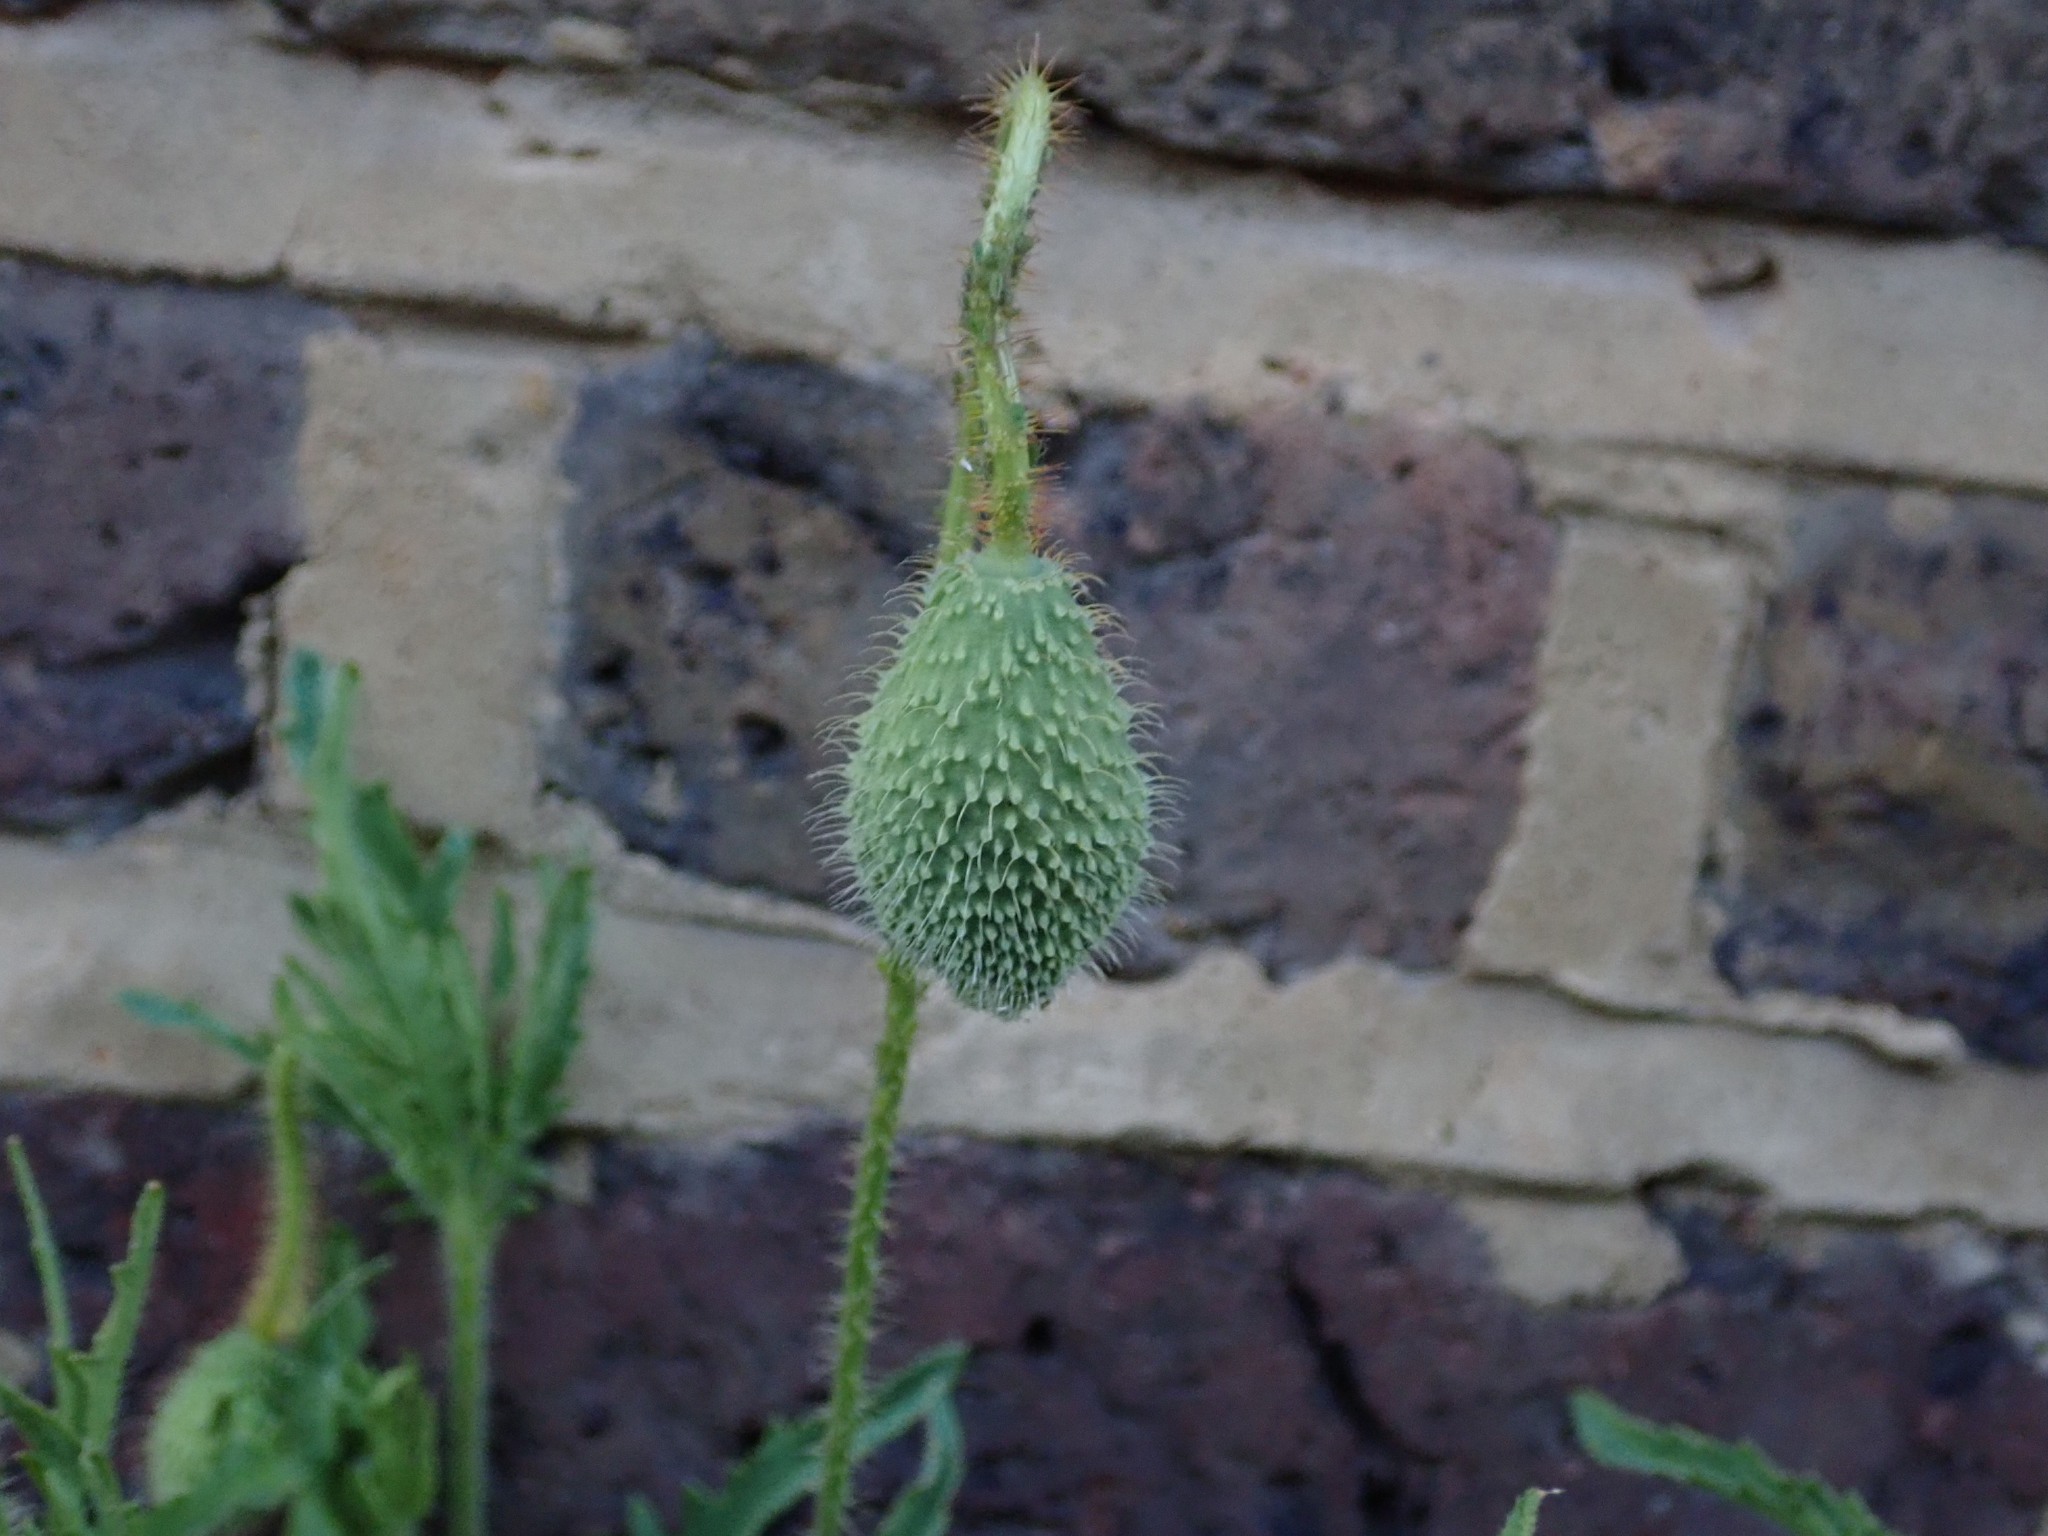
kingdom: Plantae
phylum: Tracheophyta
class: Magnoliopsida
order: Ranunculales
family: Papaveraceae
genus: Papaver
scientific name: Papaver rhoeas
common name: Corn poppy
